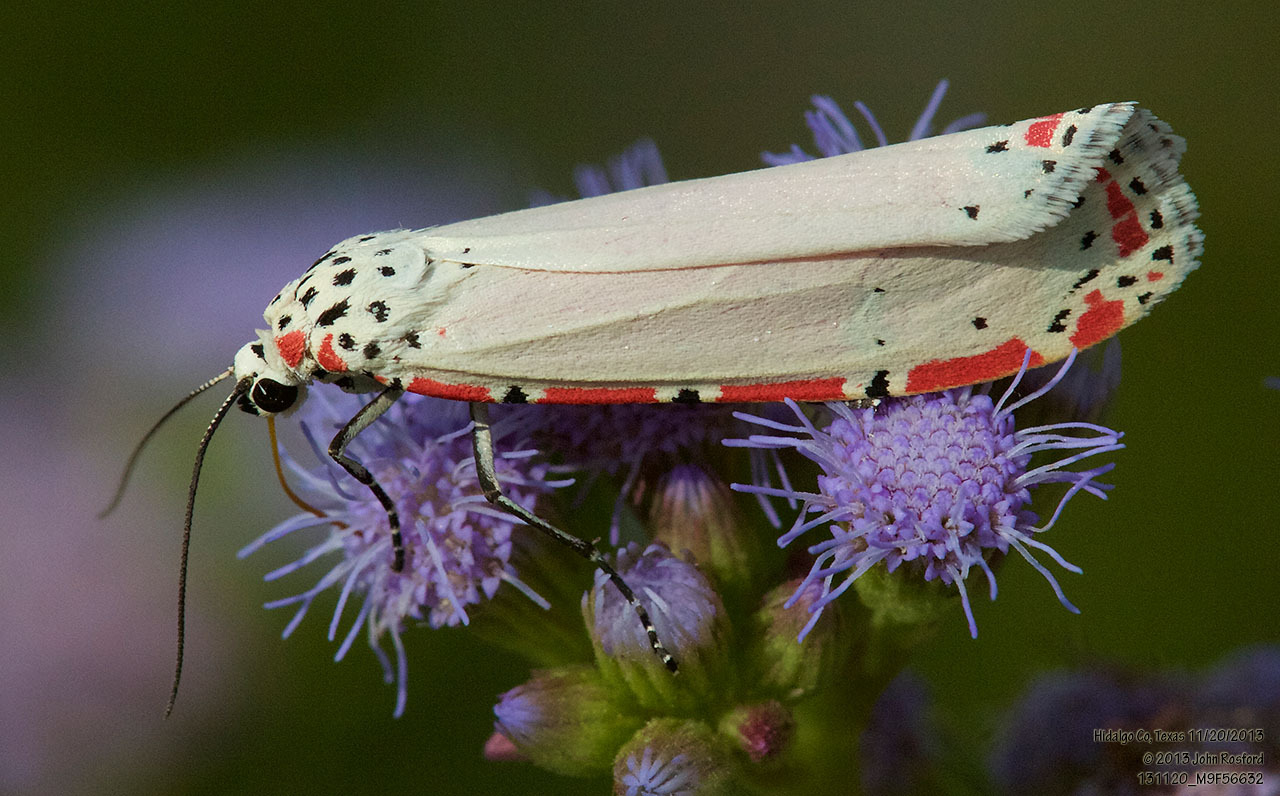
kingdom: Animalia
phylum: Arthropoda
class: Insecta
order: Lepidoptera
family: Erebidae
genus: Utetheisa
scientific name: Utetheisa ornatrix
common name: Beautiful utetheisa
